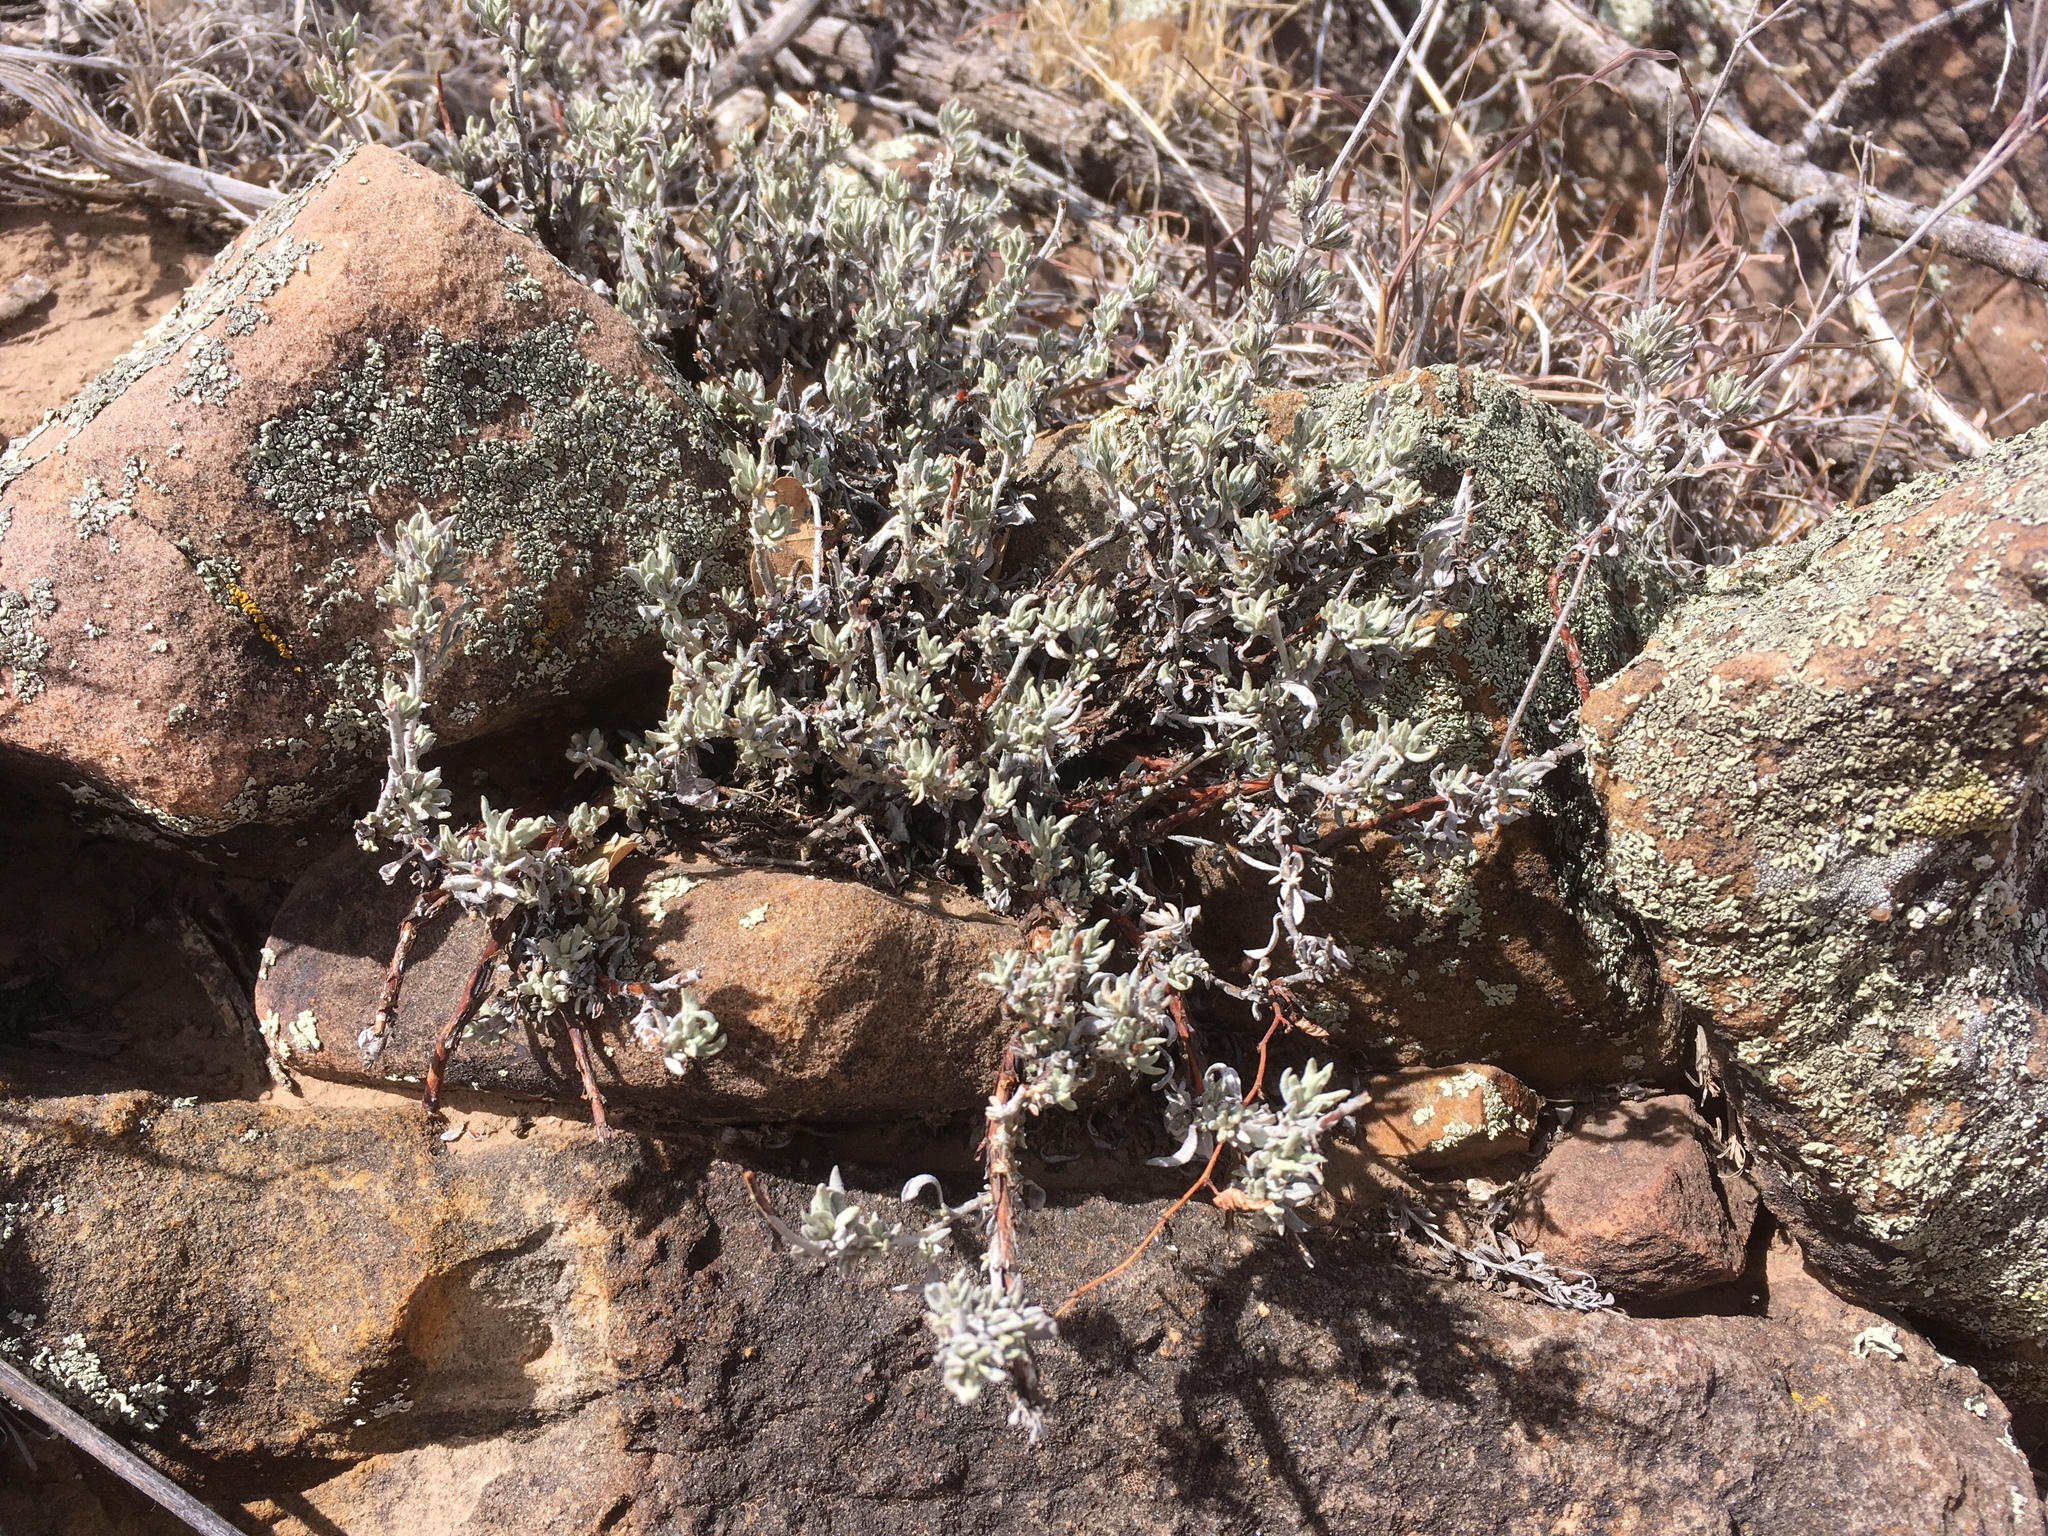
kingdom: Plantae
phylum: Tracheophyta
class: Magnoliopsida
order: Caryophyllales
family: Polygonaceae
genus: Eriogonum
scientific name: Eriogonum wrightii
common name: Bastard-sage
